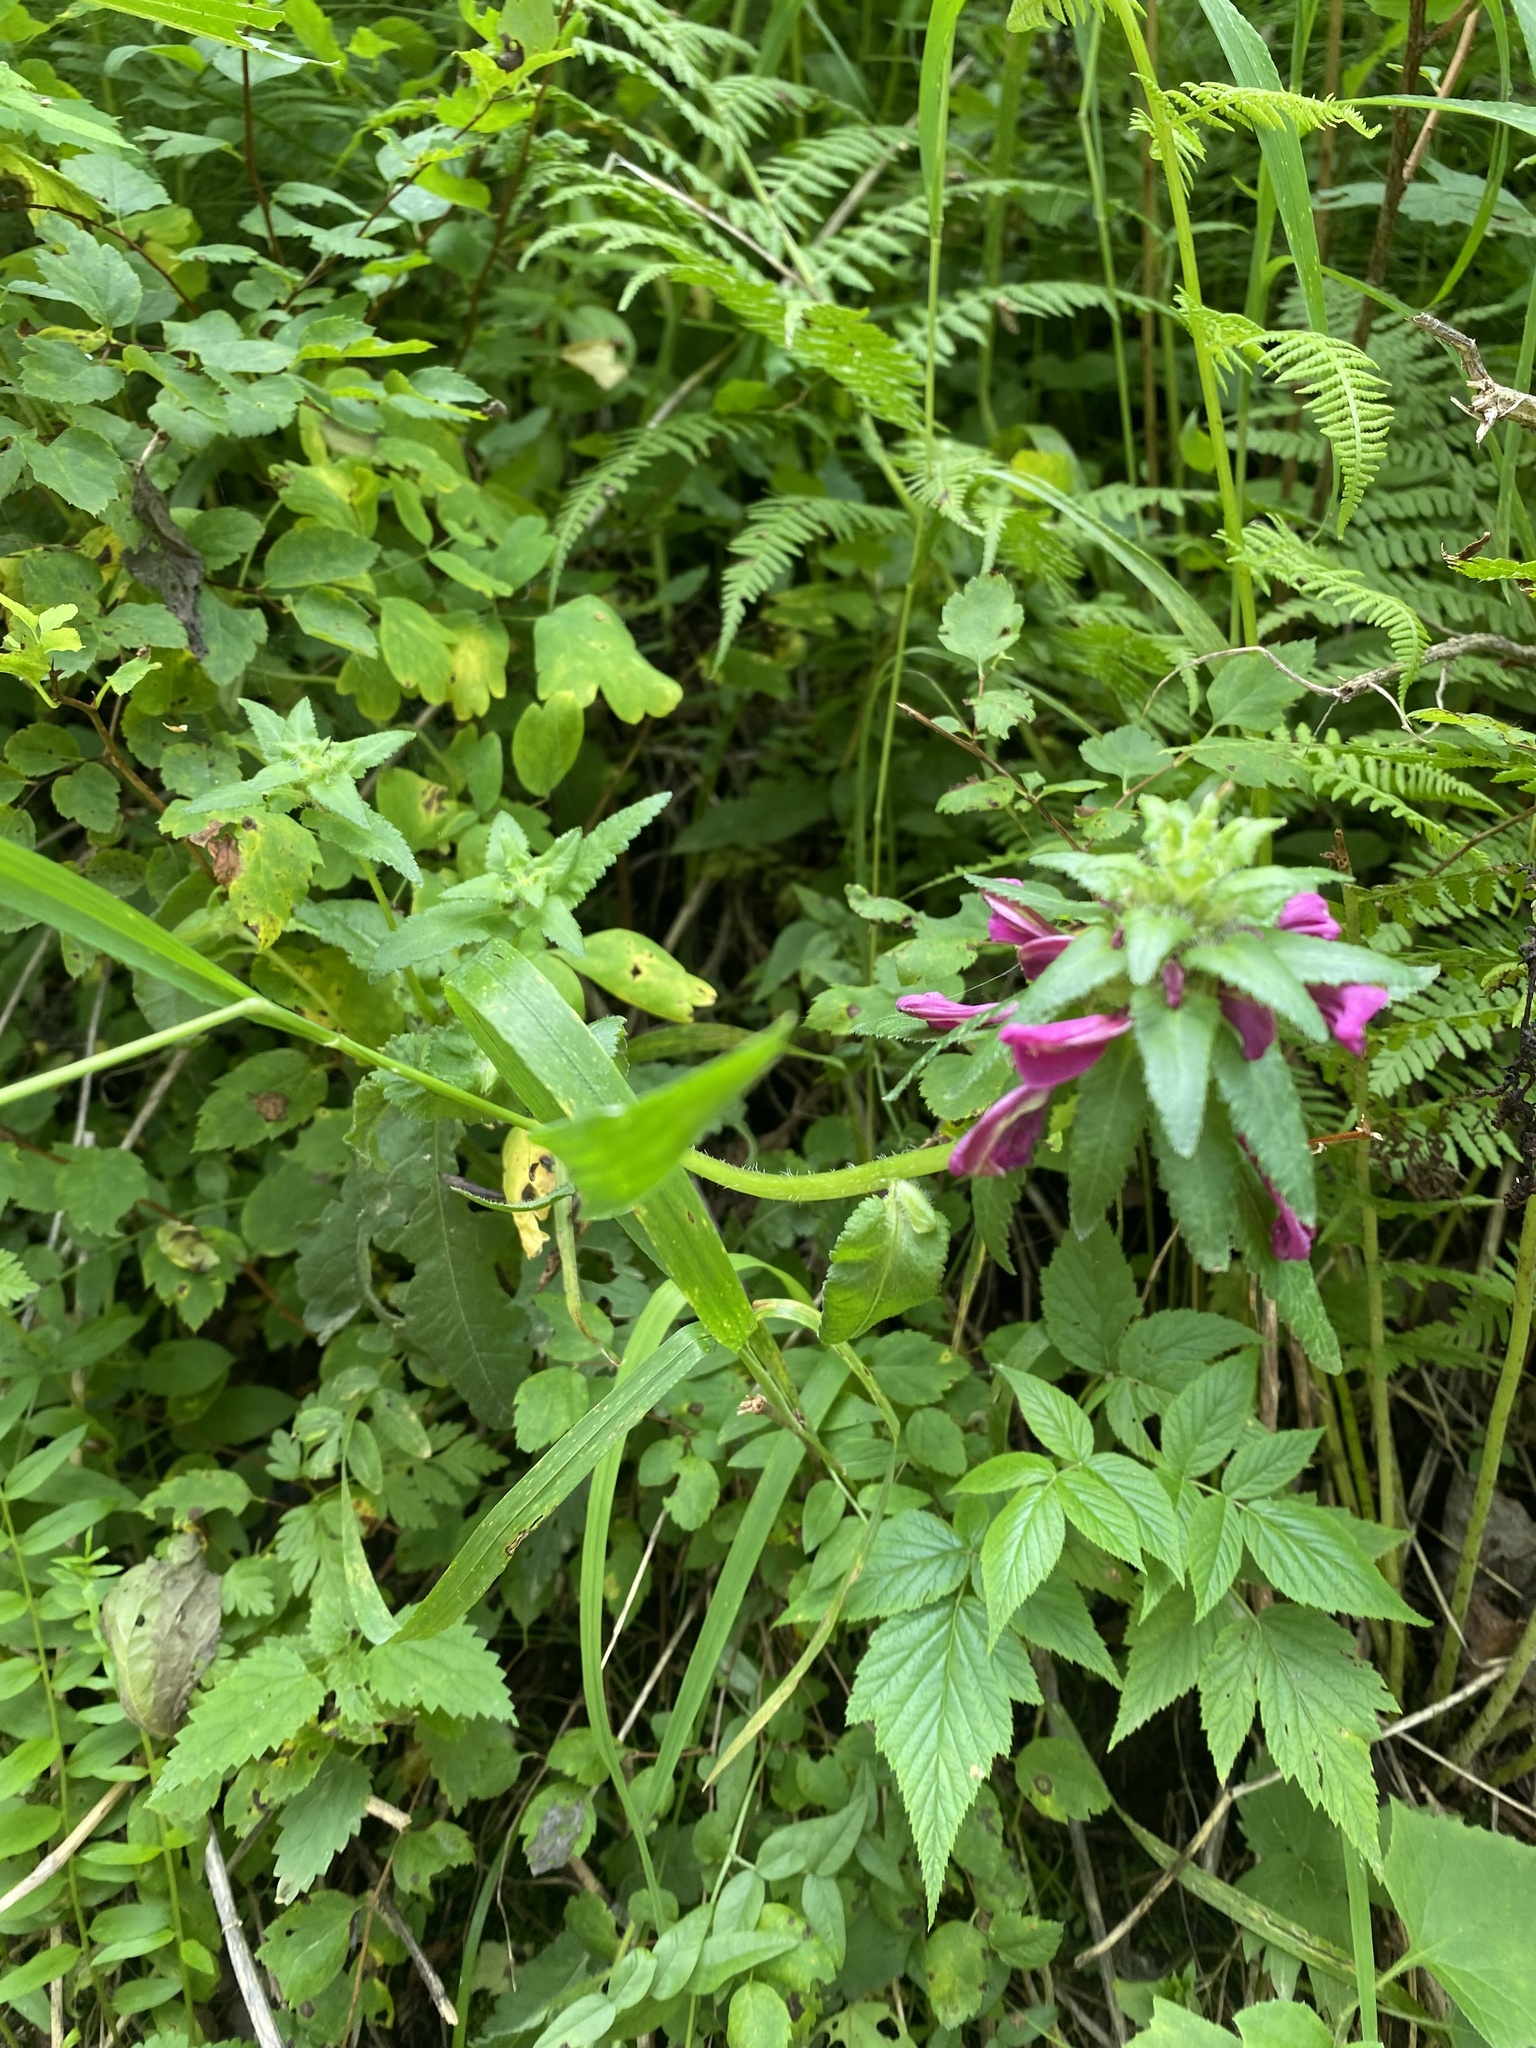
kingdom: Plantae
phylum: Tracheophyta
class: Magnoliopsida
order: Lamiales
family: Orobanchaceae
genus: Pedicularis
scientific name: Pedicularis resupinata
